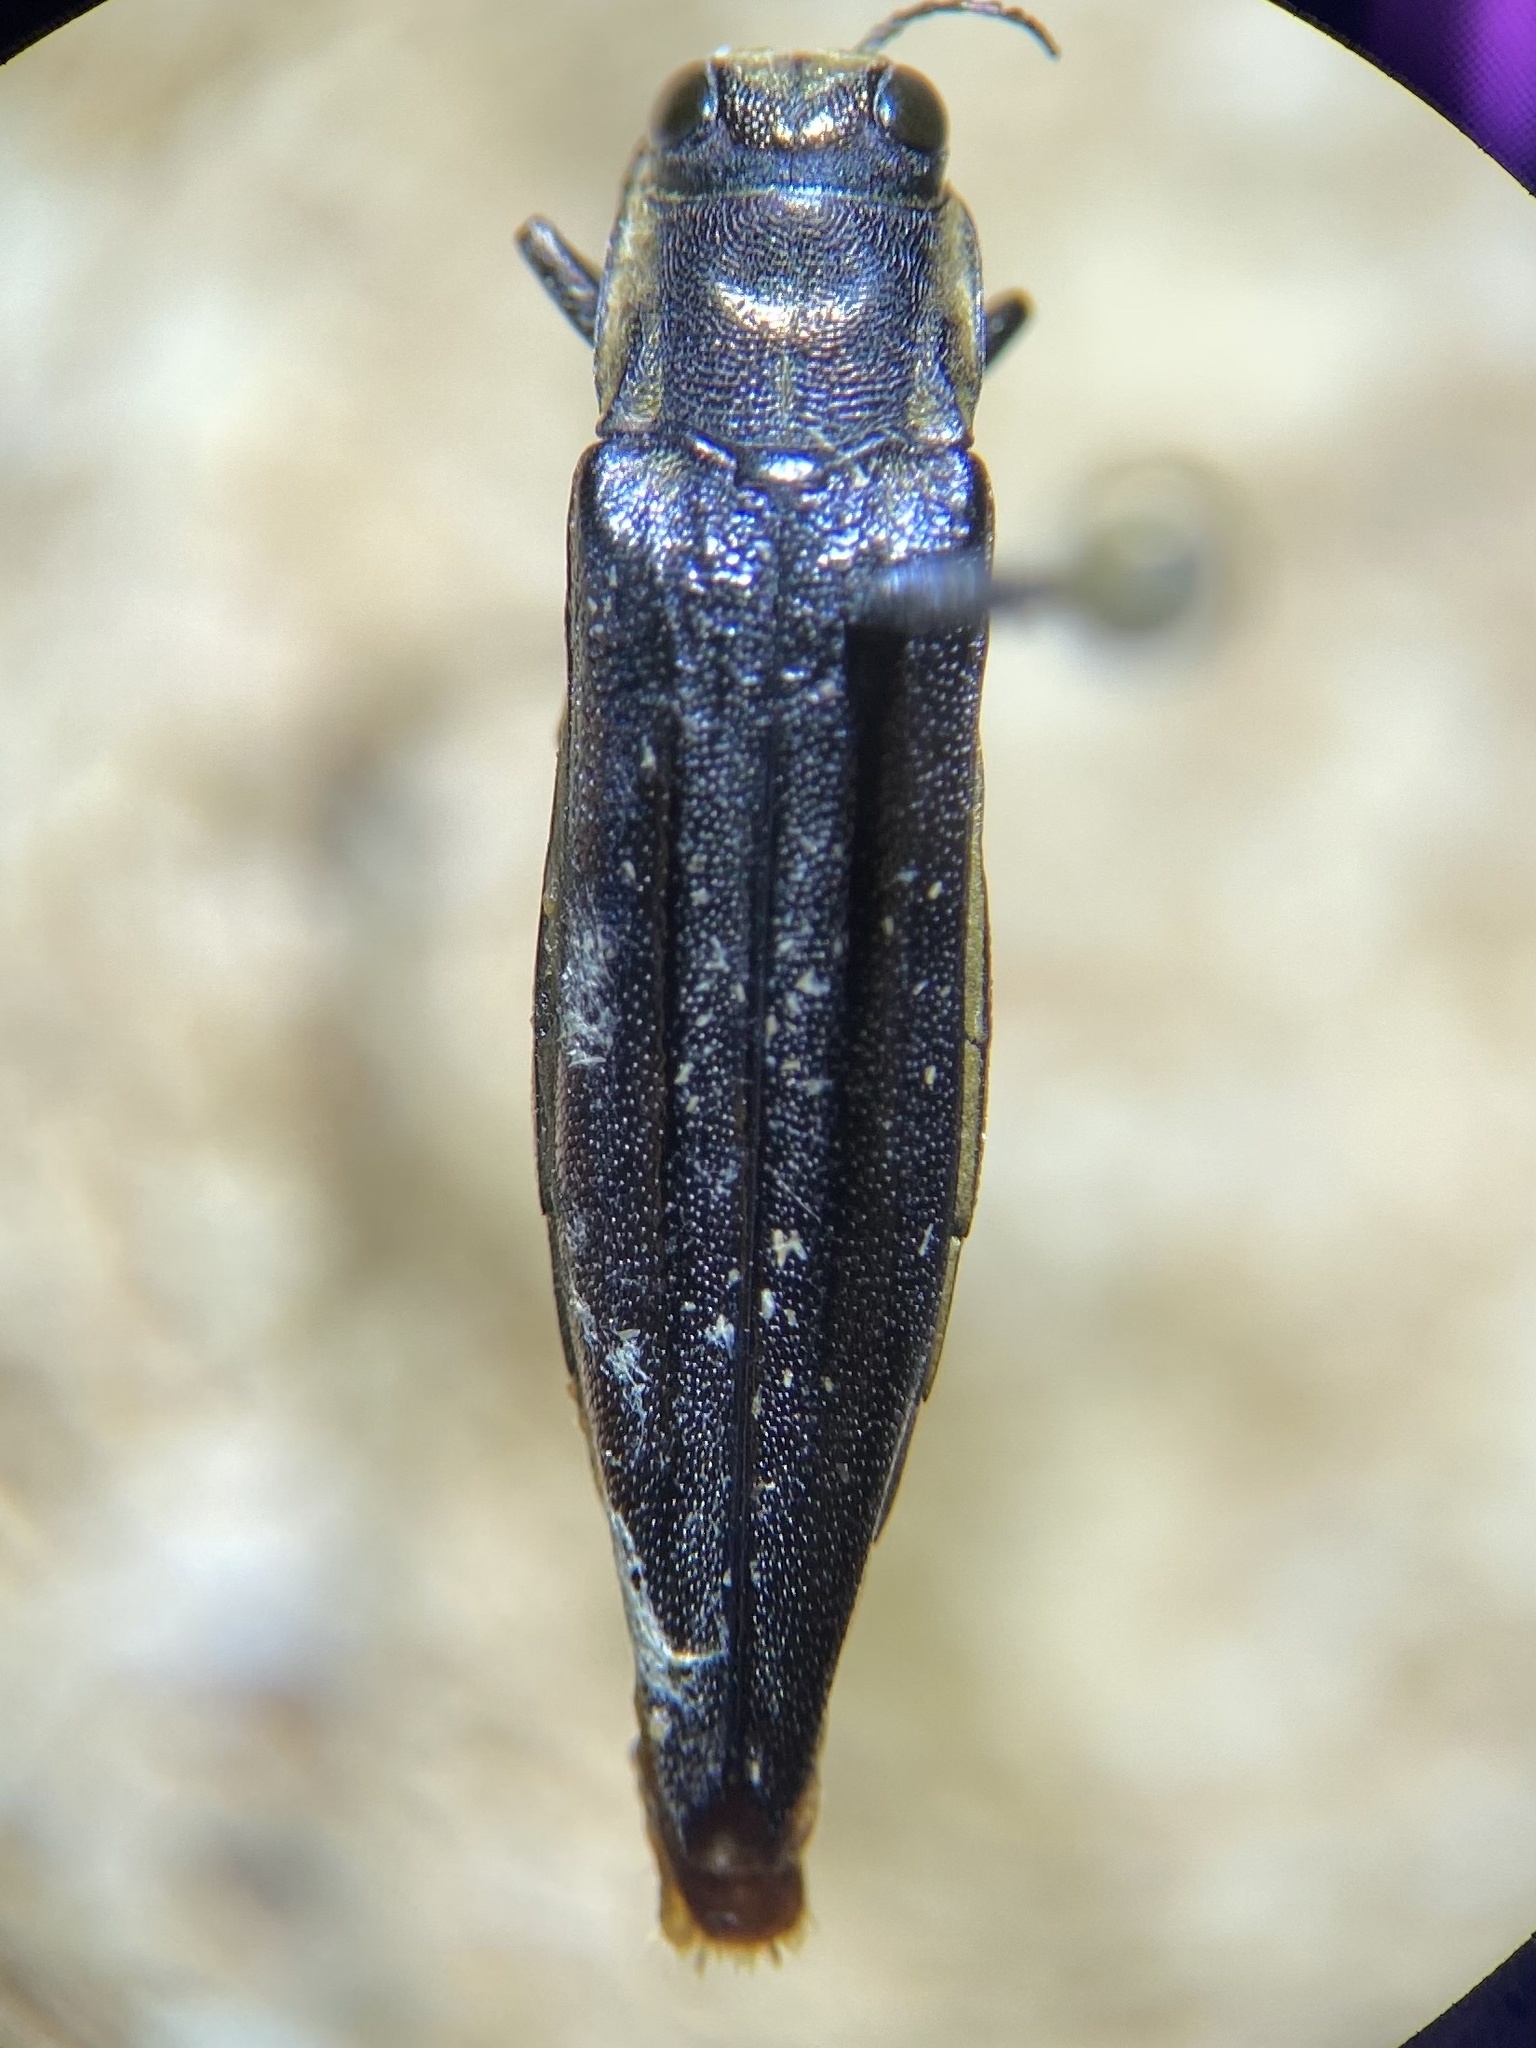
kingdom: Animalia
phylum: Arthropoda
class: Insecta
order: Coleoptera
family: Buprestidae
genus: Agrilus
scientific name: Agrilus ferrisi
